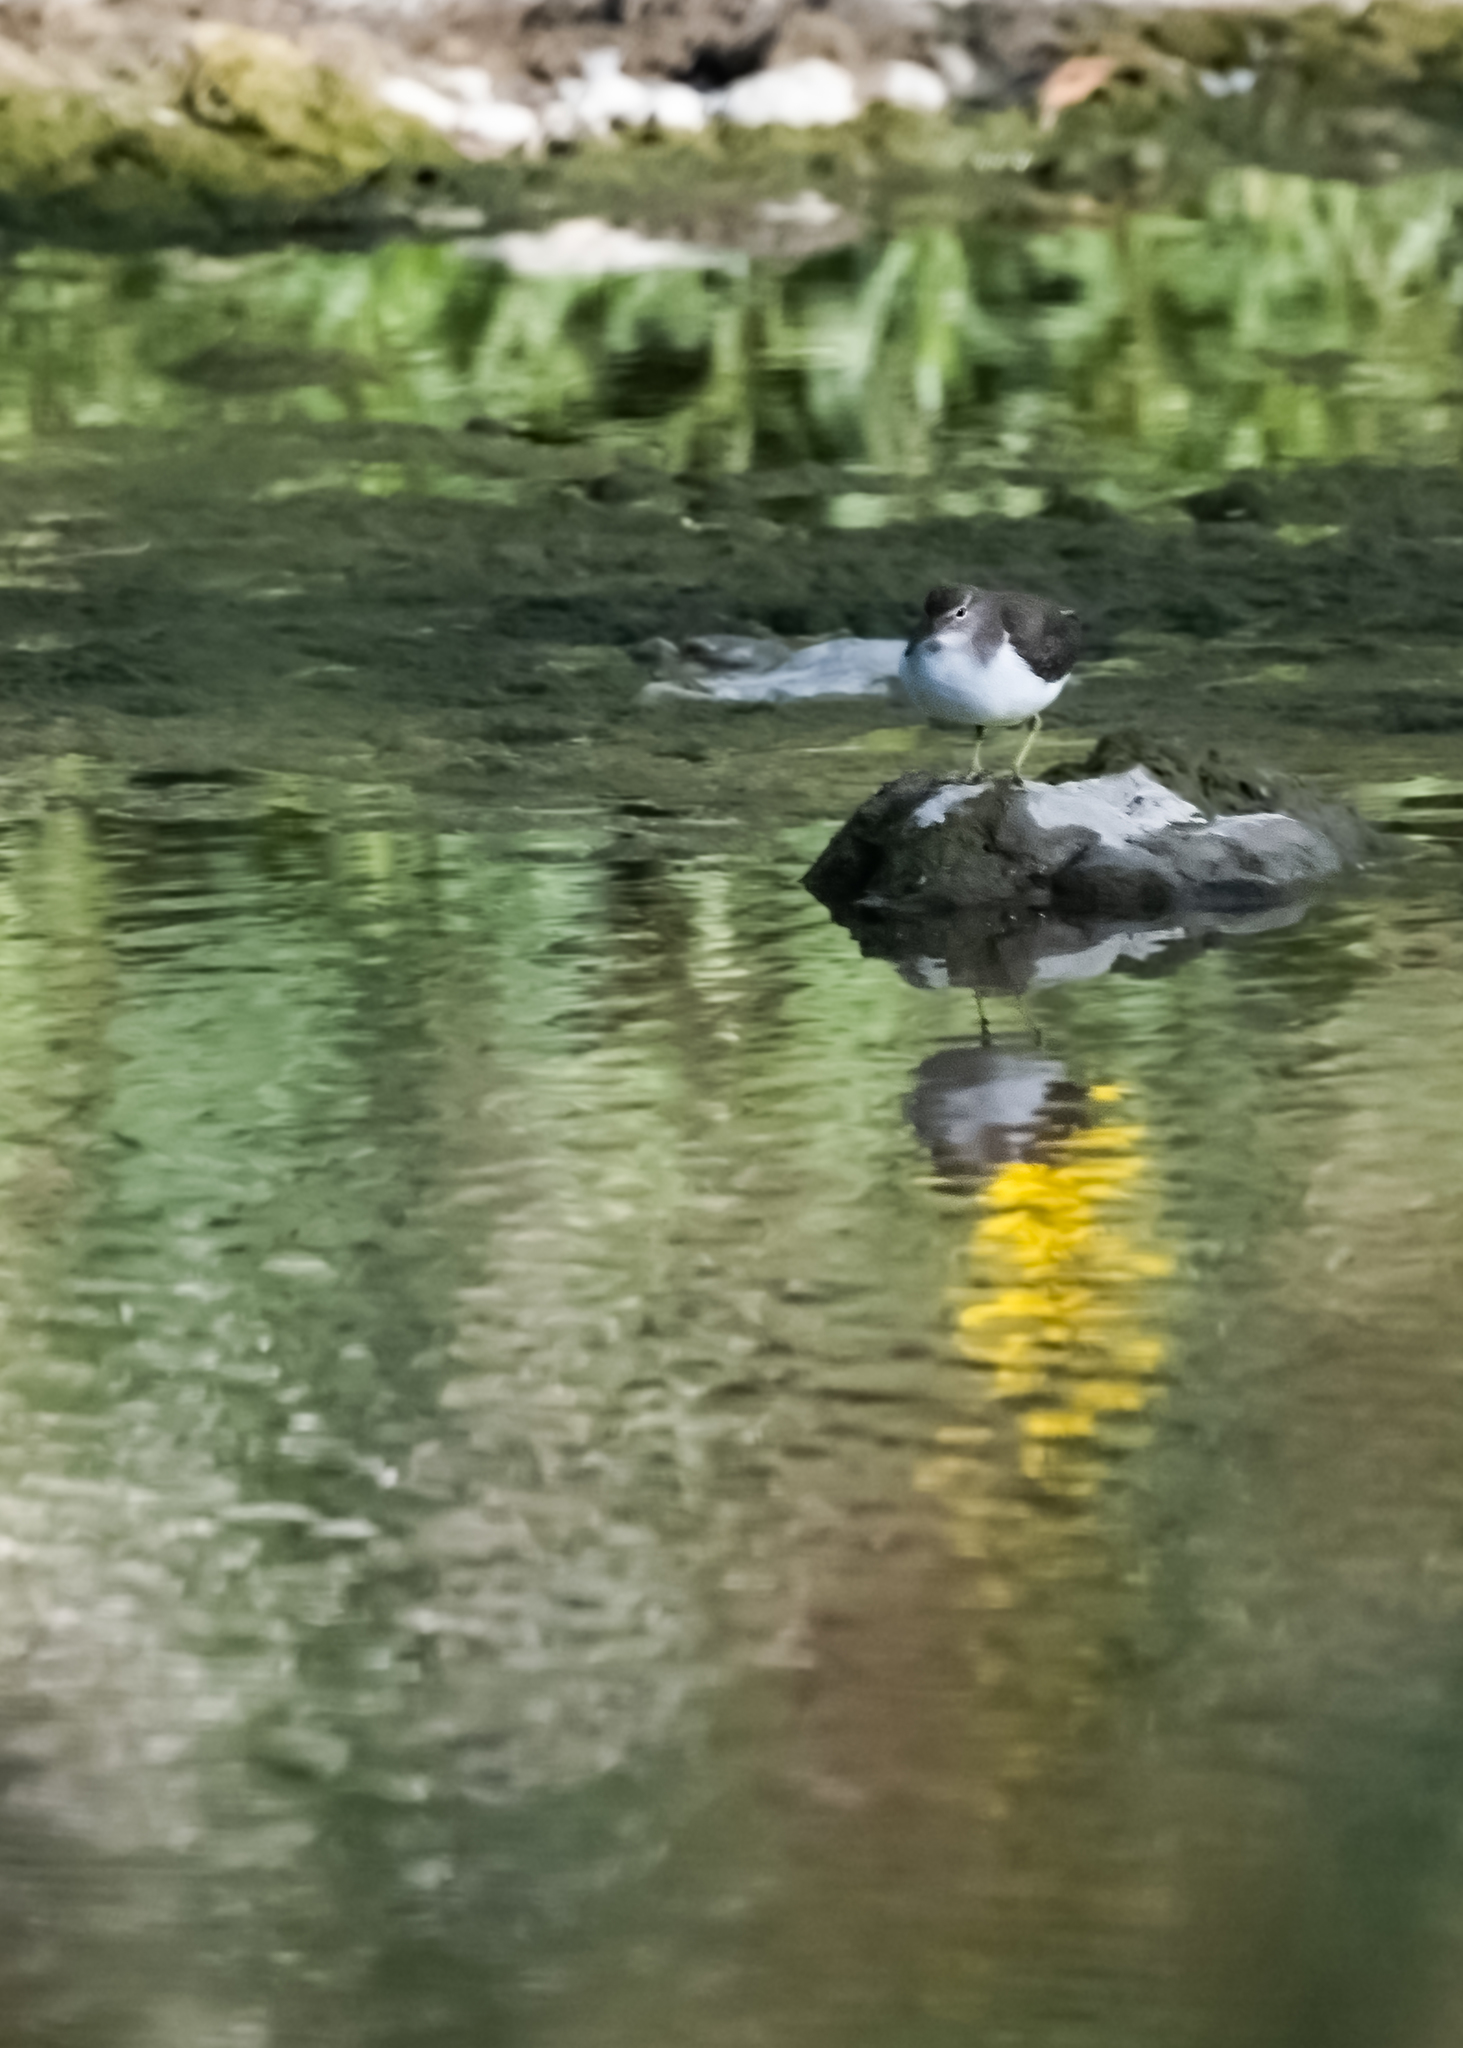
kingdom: Animalia
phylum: Chordata
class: Aves
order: Charadriiformes
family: Scolopacidae
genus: Actitis
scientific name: Actitis macularius
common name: Spotted sandpiper
